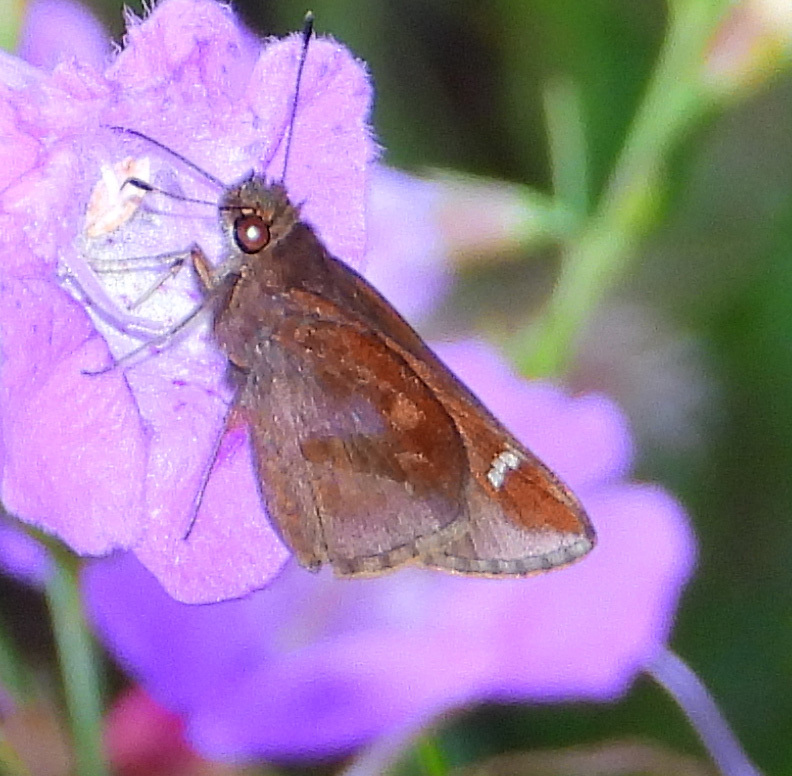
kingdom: Animalia
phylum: Arthropoda
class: Insecta
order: Lepidoptera
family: Hesperiidae
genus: Lerema
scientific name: Lerema accius
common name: Clouded skipper
